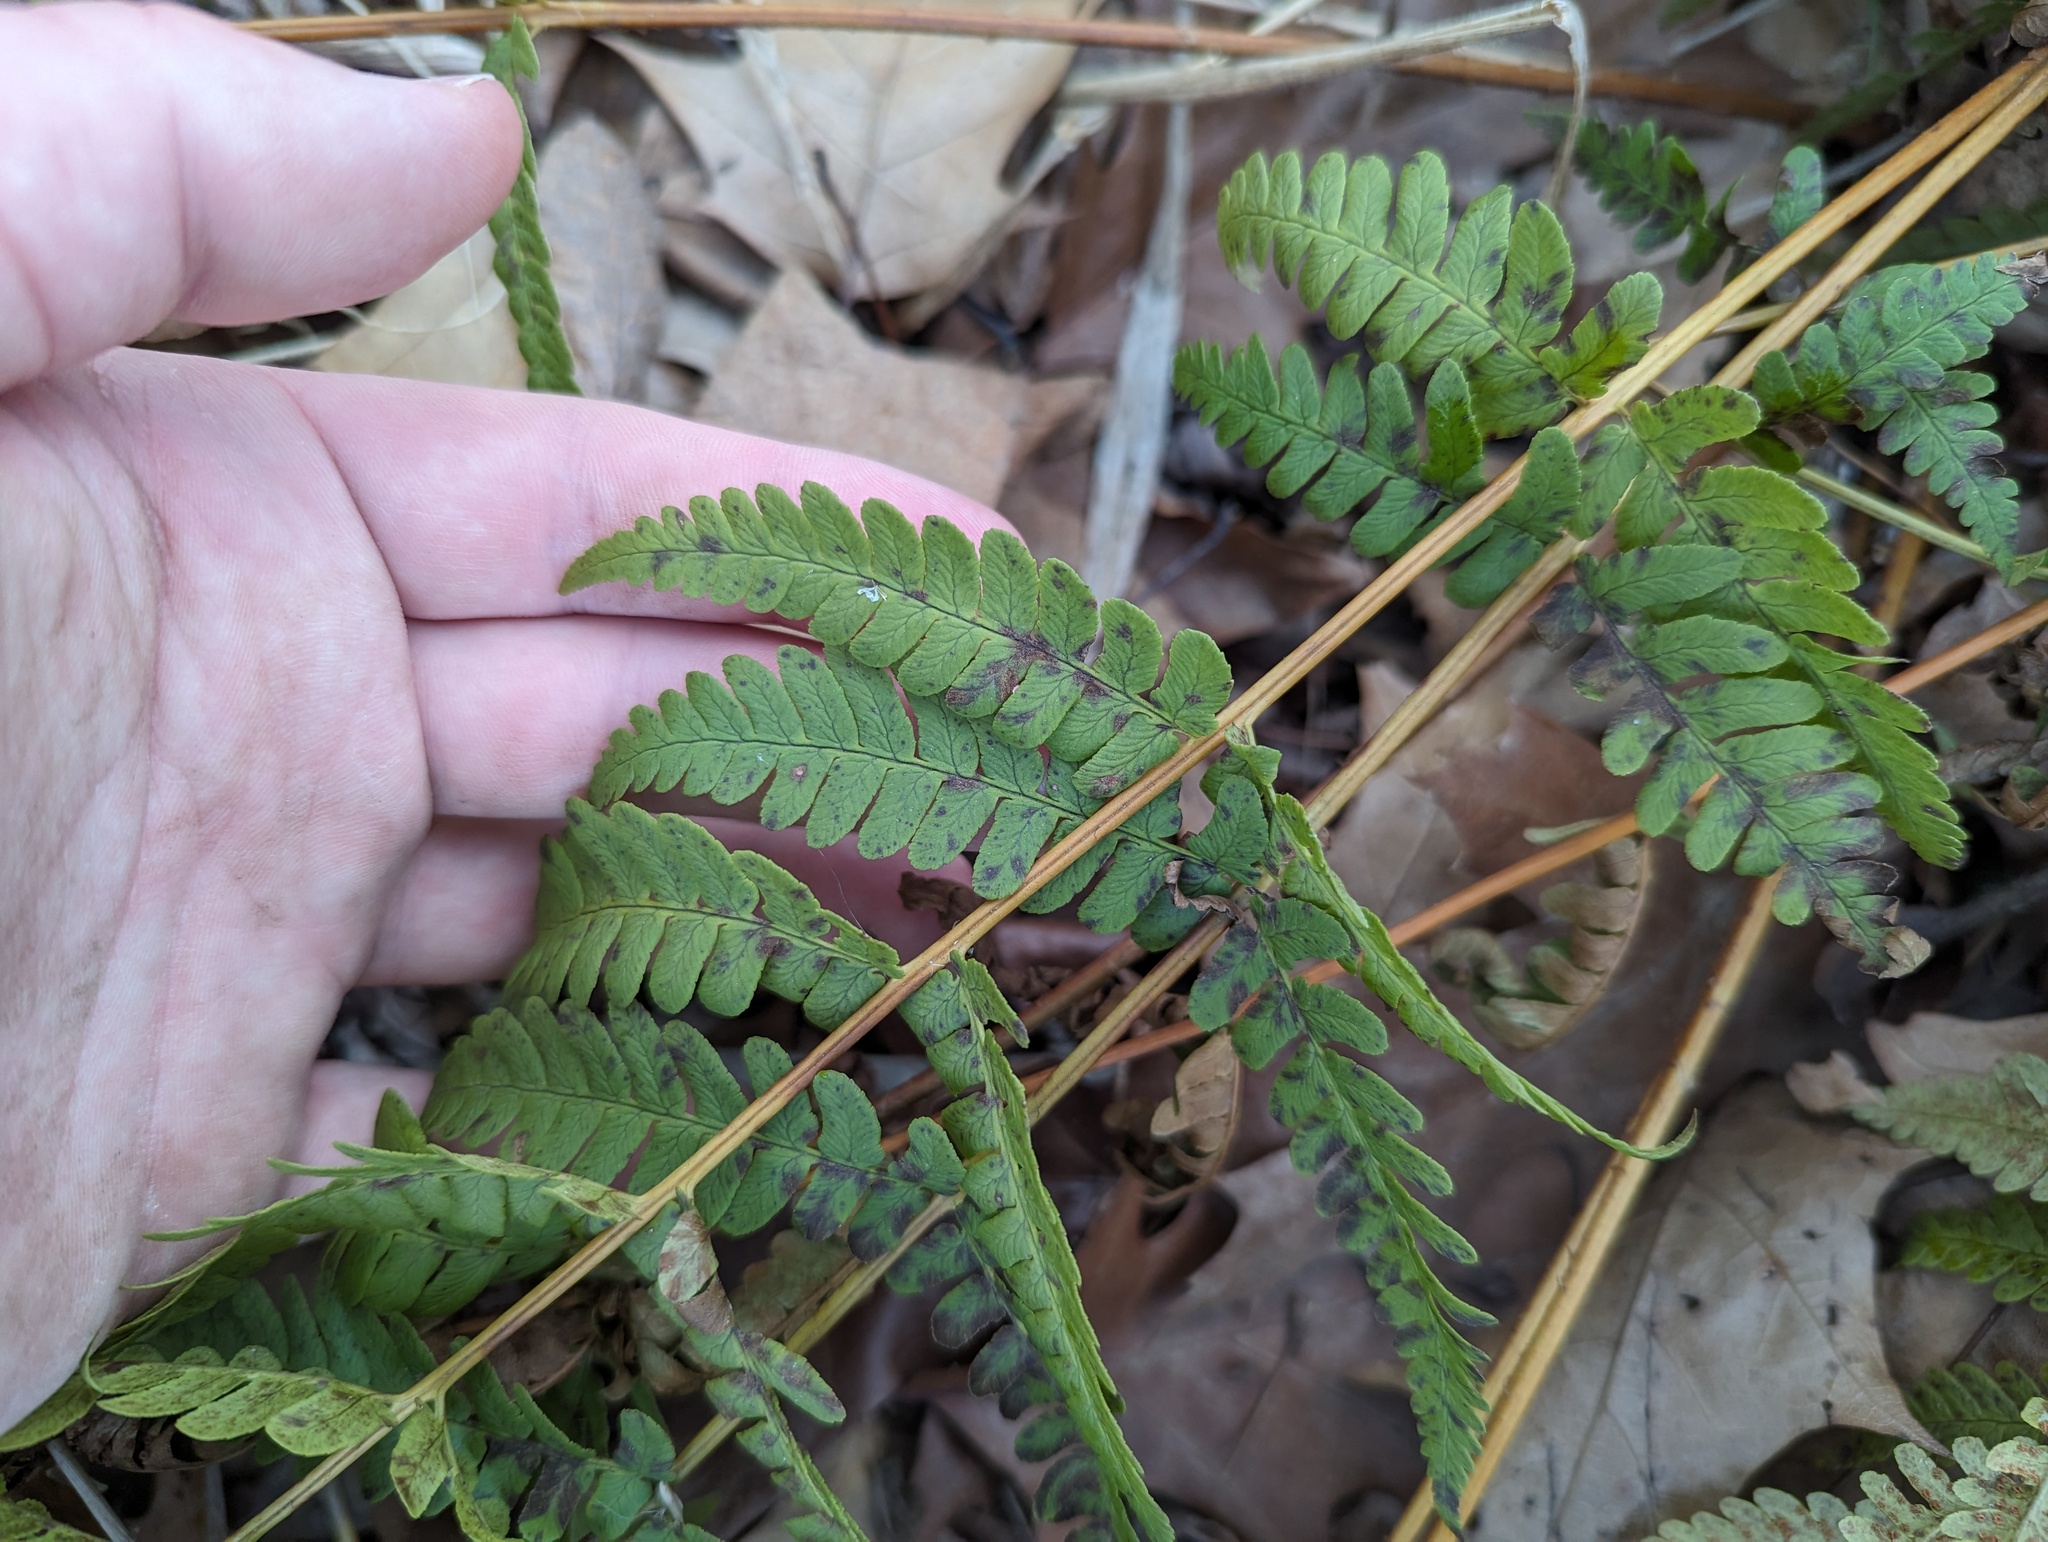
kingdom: Plantae
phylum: Tracheophyta
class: Polypodiopsida
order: Polypodiales
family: Dryopteridaceae
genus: Dryopteris
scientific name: Dryopteris marginalis
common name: Marginal wood fern
